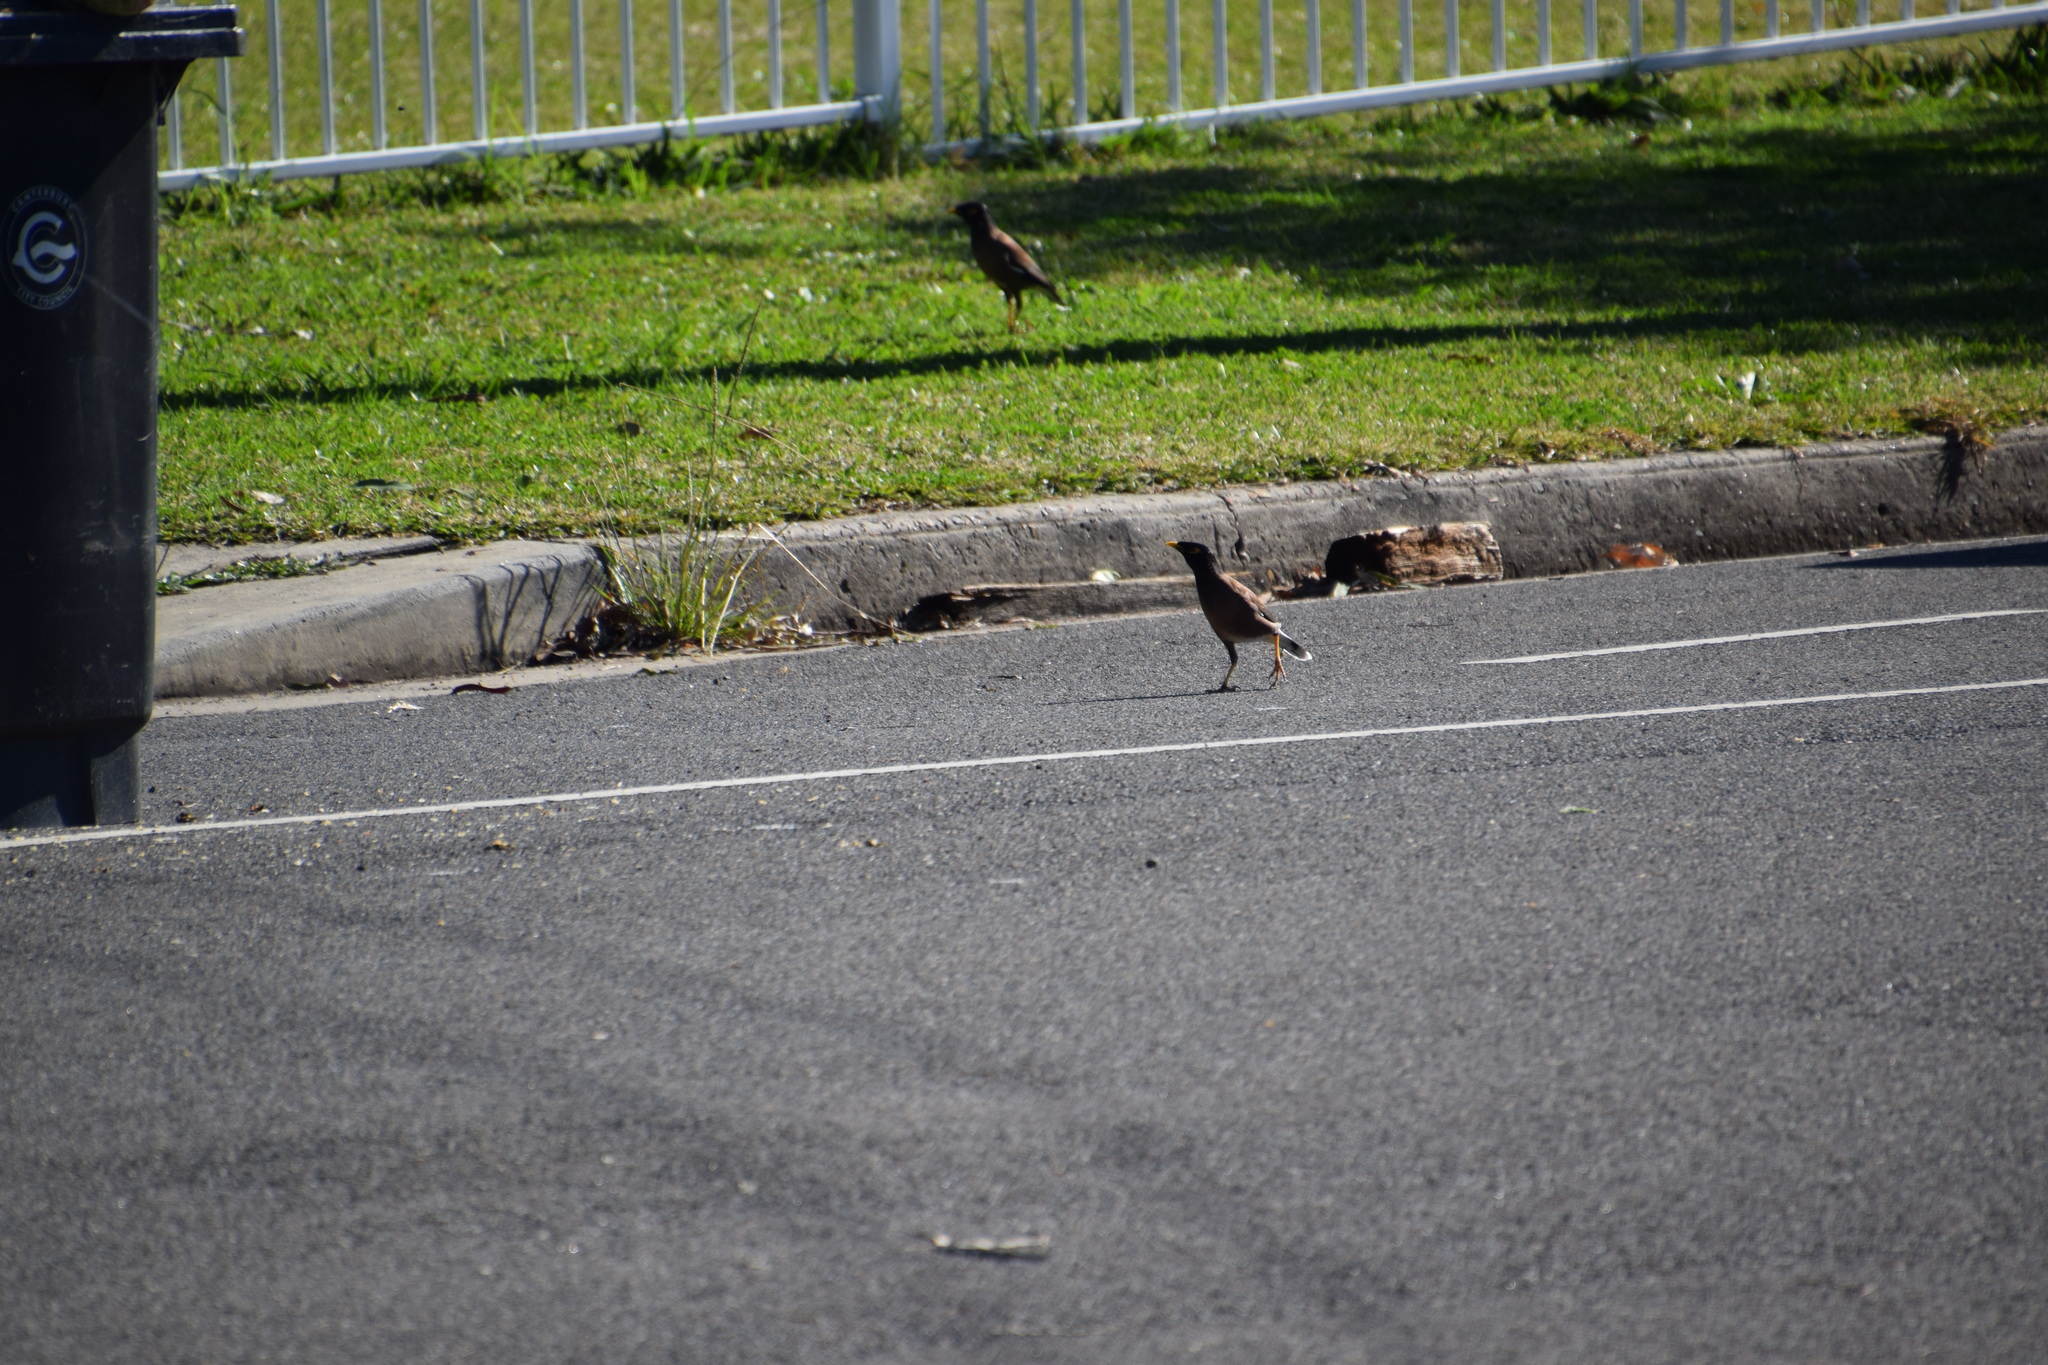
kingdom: Animalia
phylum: Chordata
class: Aves
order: Passeriformes
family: Sturnidae
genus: Acridotheres
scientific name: Acridotheres tristis
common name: Common myna
